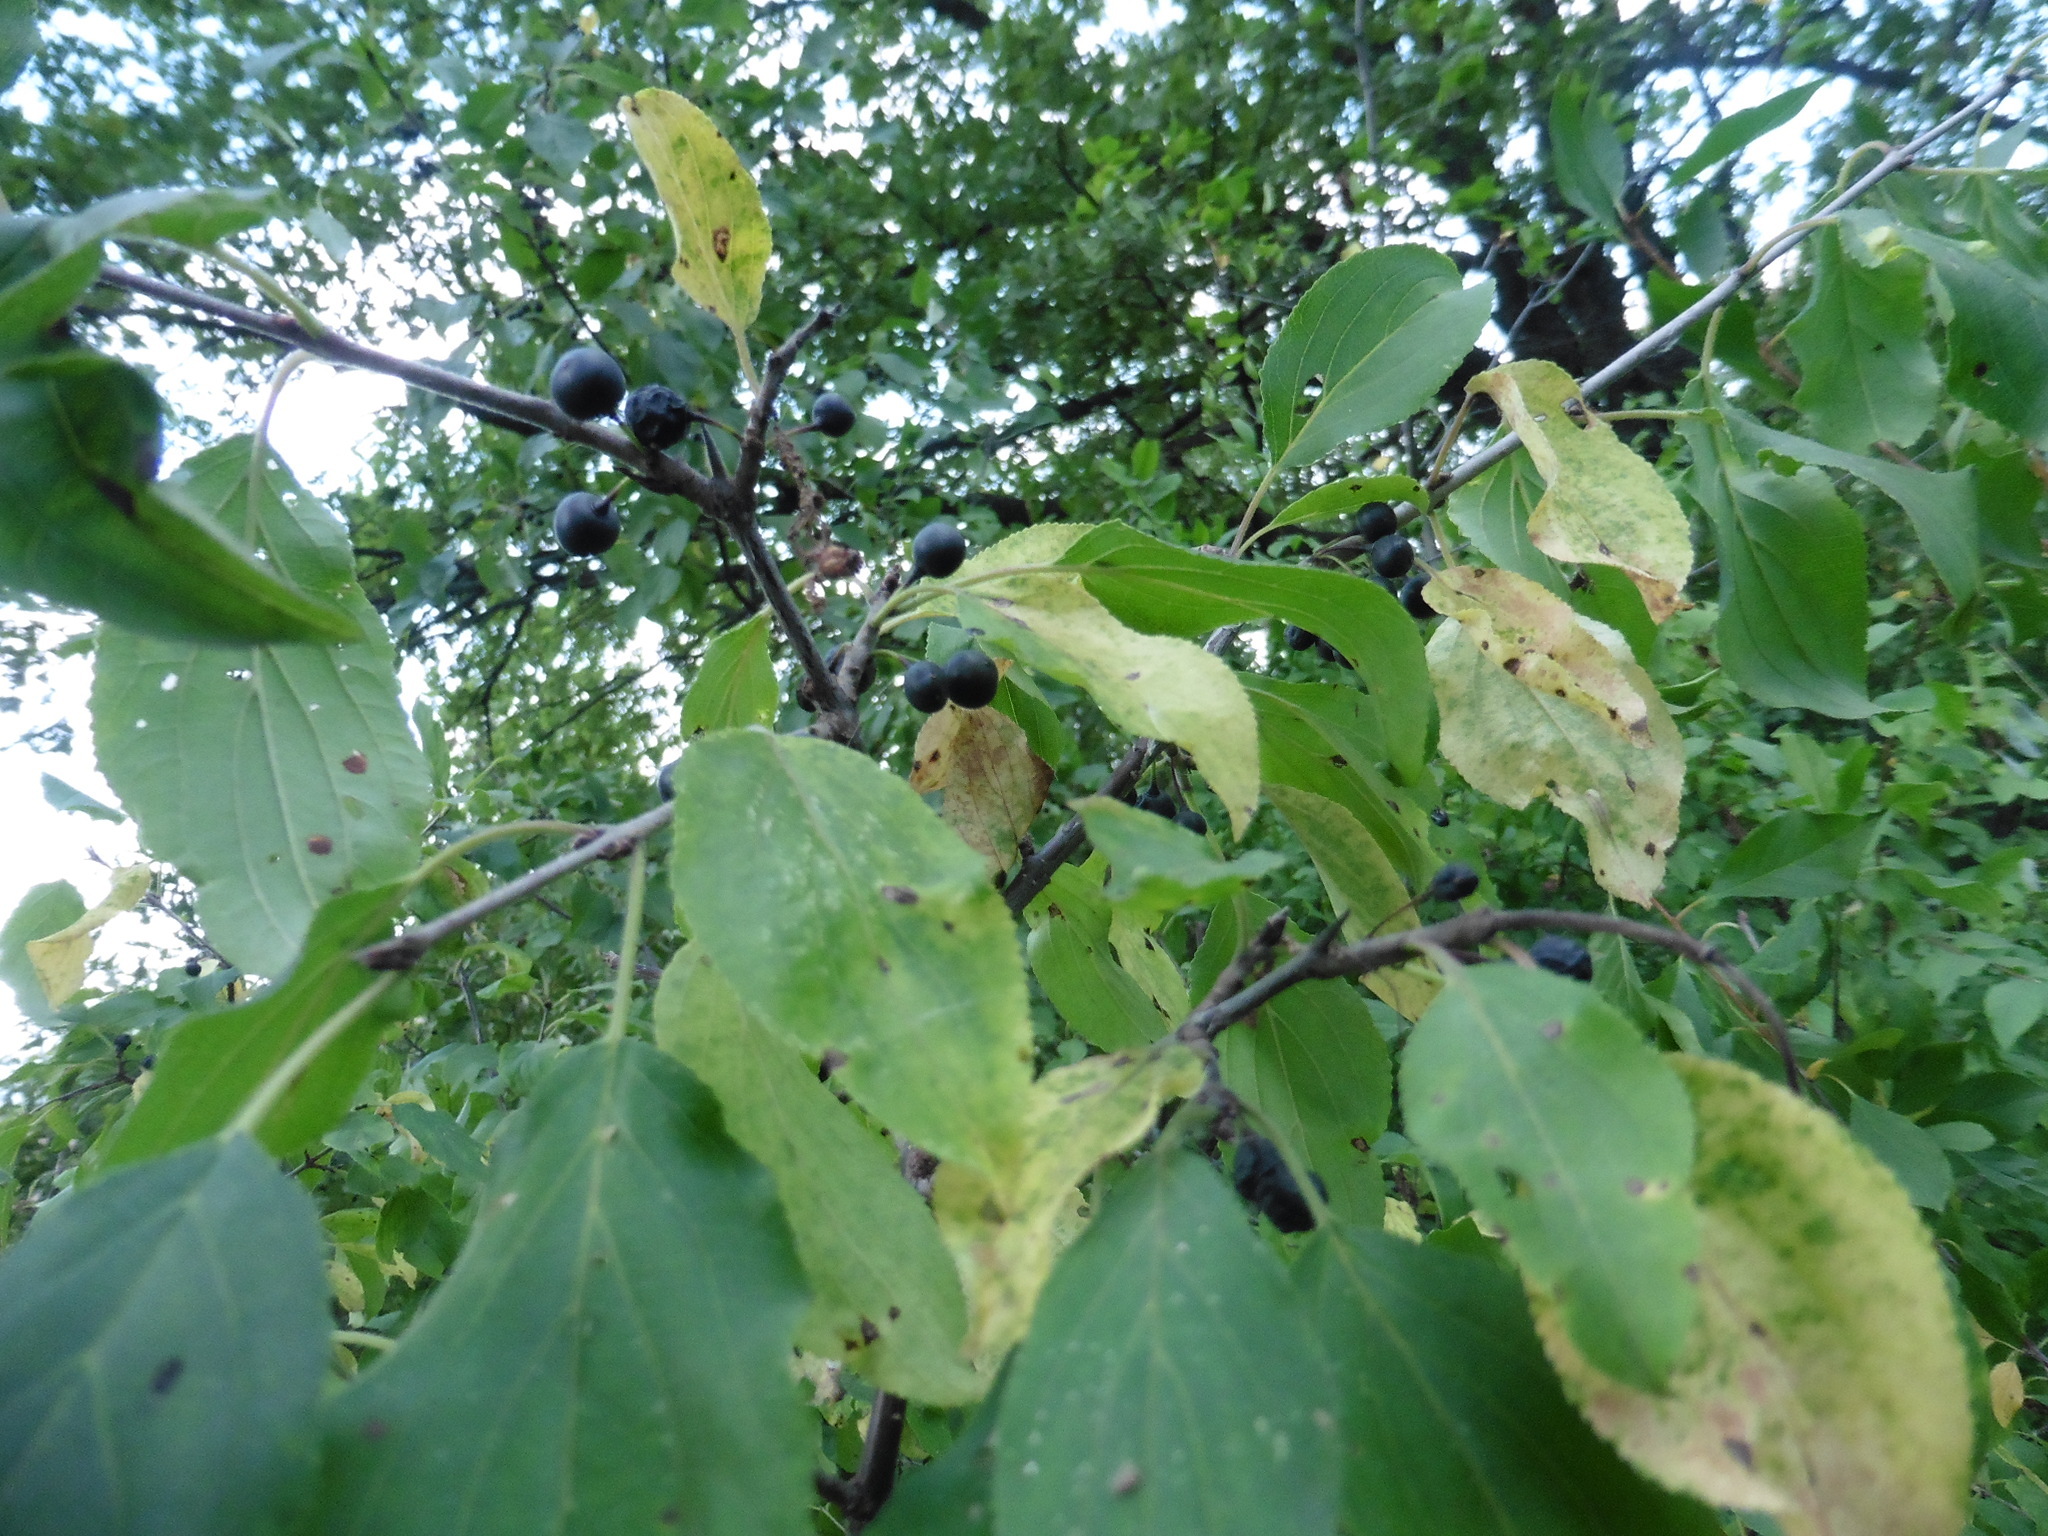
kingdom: Plantae
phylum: Tracheophyta
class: Magnoliopsida
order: Rosales
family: Rhamnaceae
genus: Rhamnus
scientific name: Rhamnus cathartica
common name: Common buckthorn
